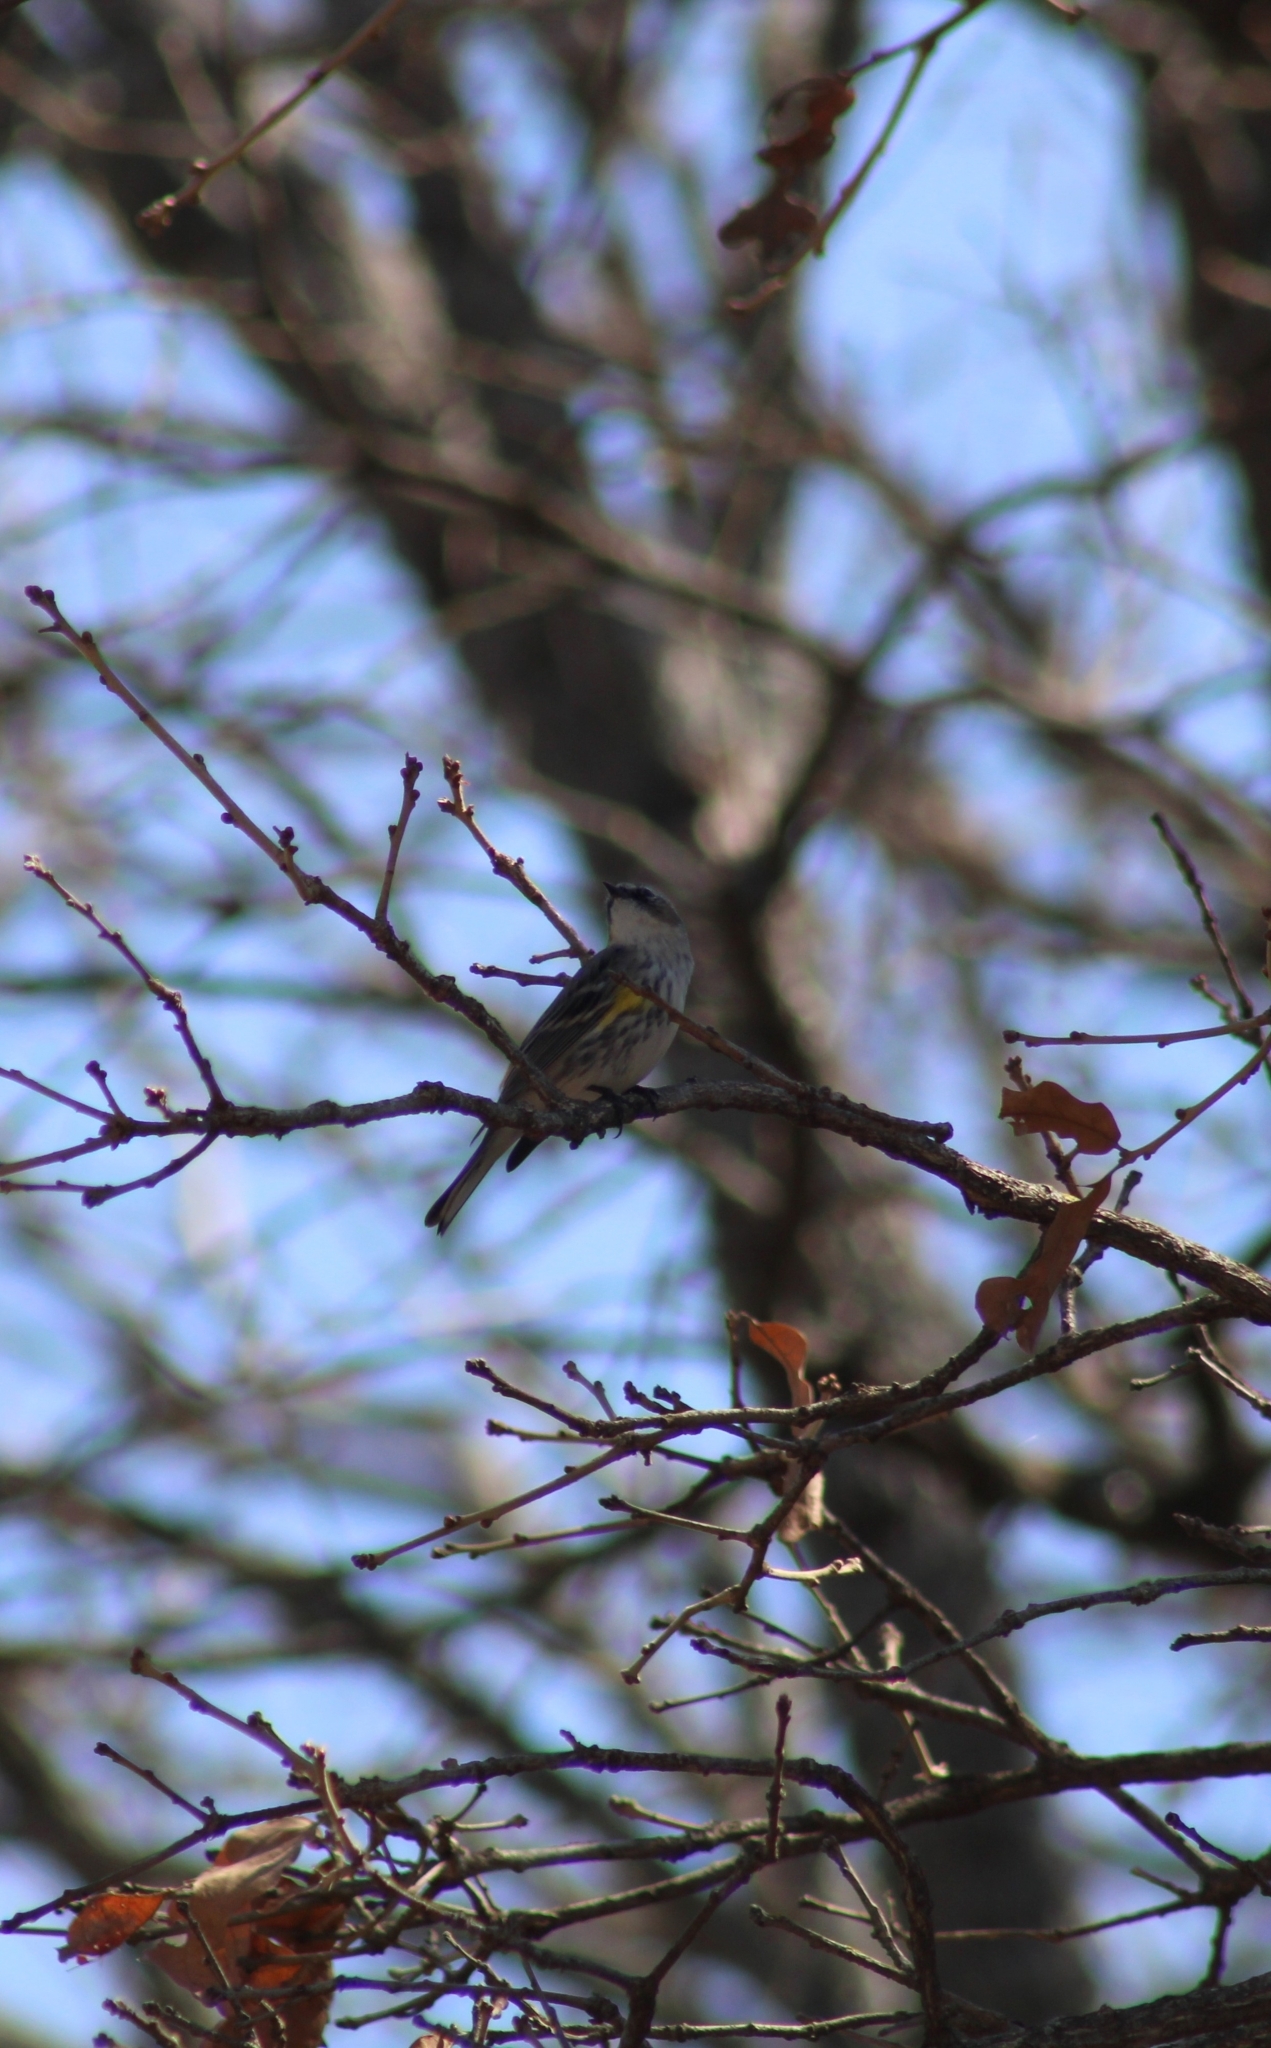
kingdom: Animalia
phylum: Chordata
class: Aves
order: Passeriformes
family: Parulidae
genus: Setophaga
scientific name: Setophaga coronata
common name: Myrtle warbler
